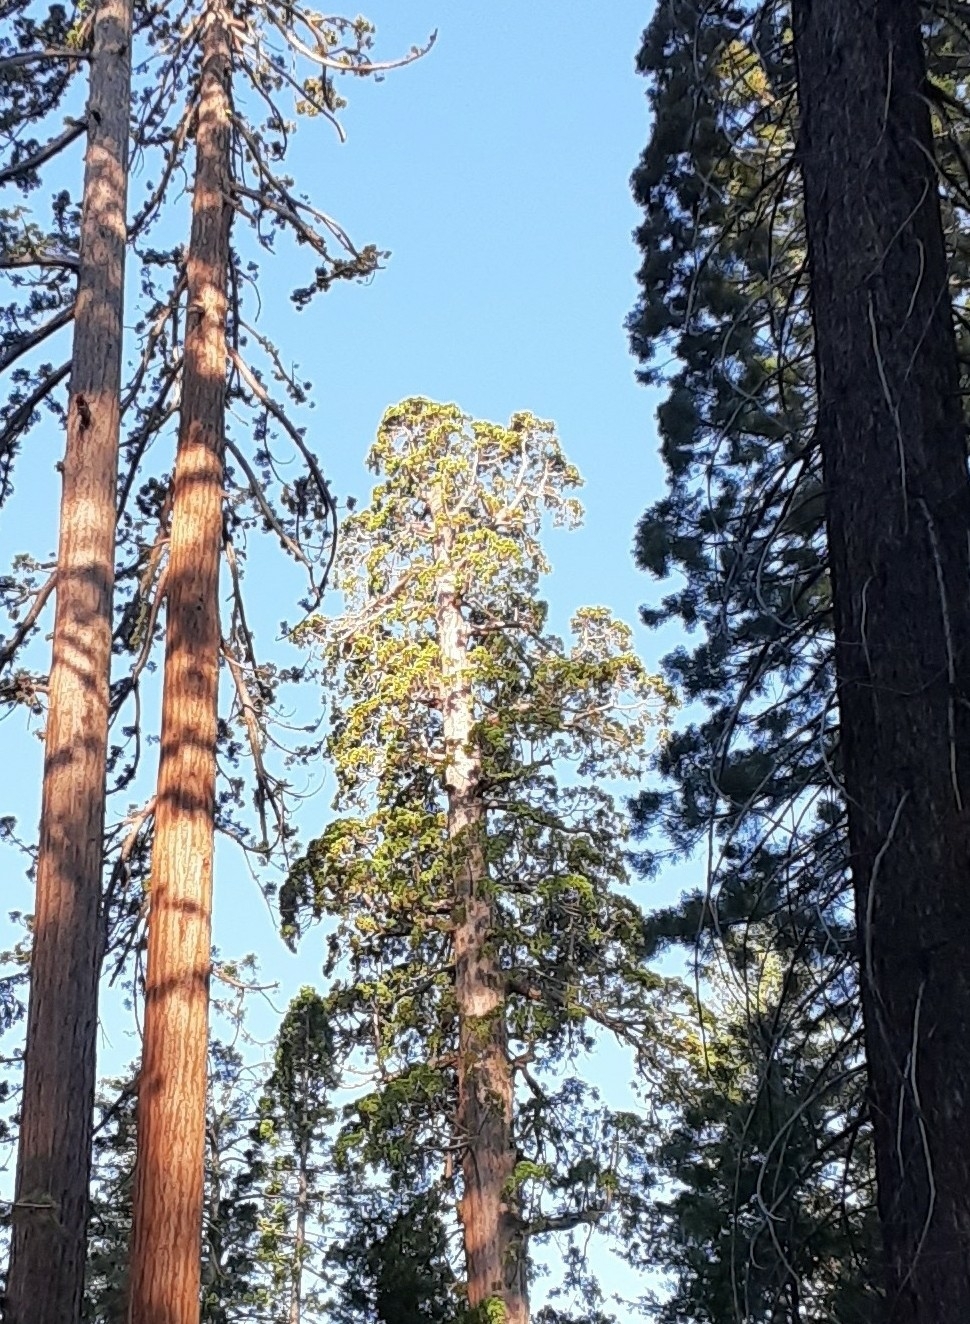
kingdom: Plantae
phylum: Tracheophyta
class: Pinopsida
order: Pinales
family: Cupressaceae
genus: Sequoiadendron
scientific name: Sequoiadendron giganteum
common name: Wellingtonia
